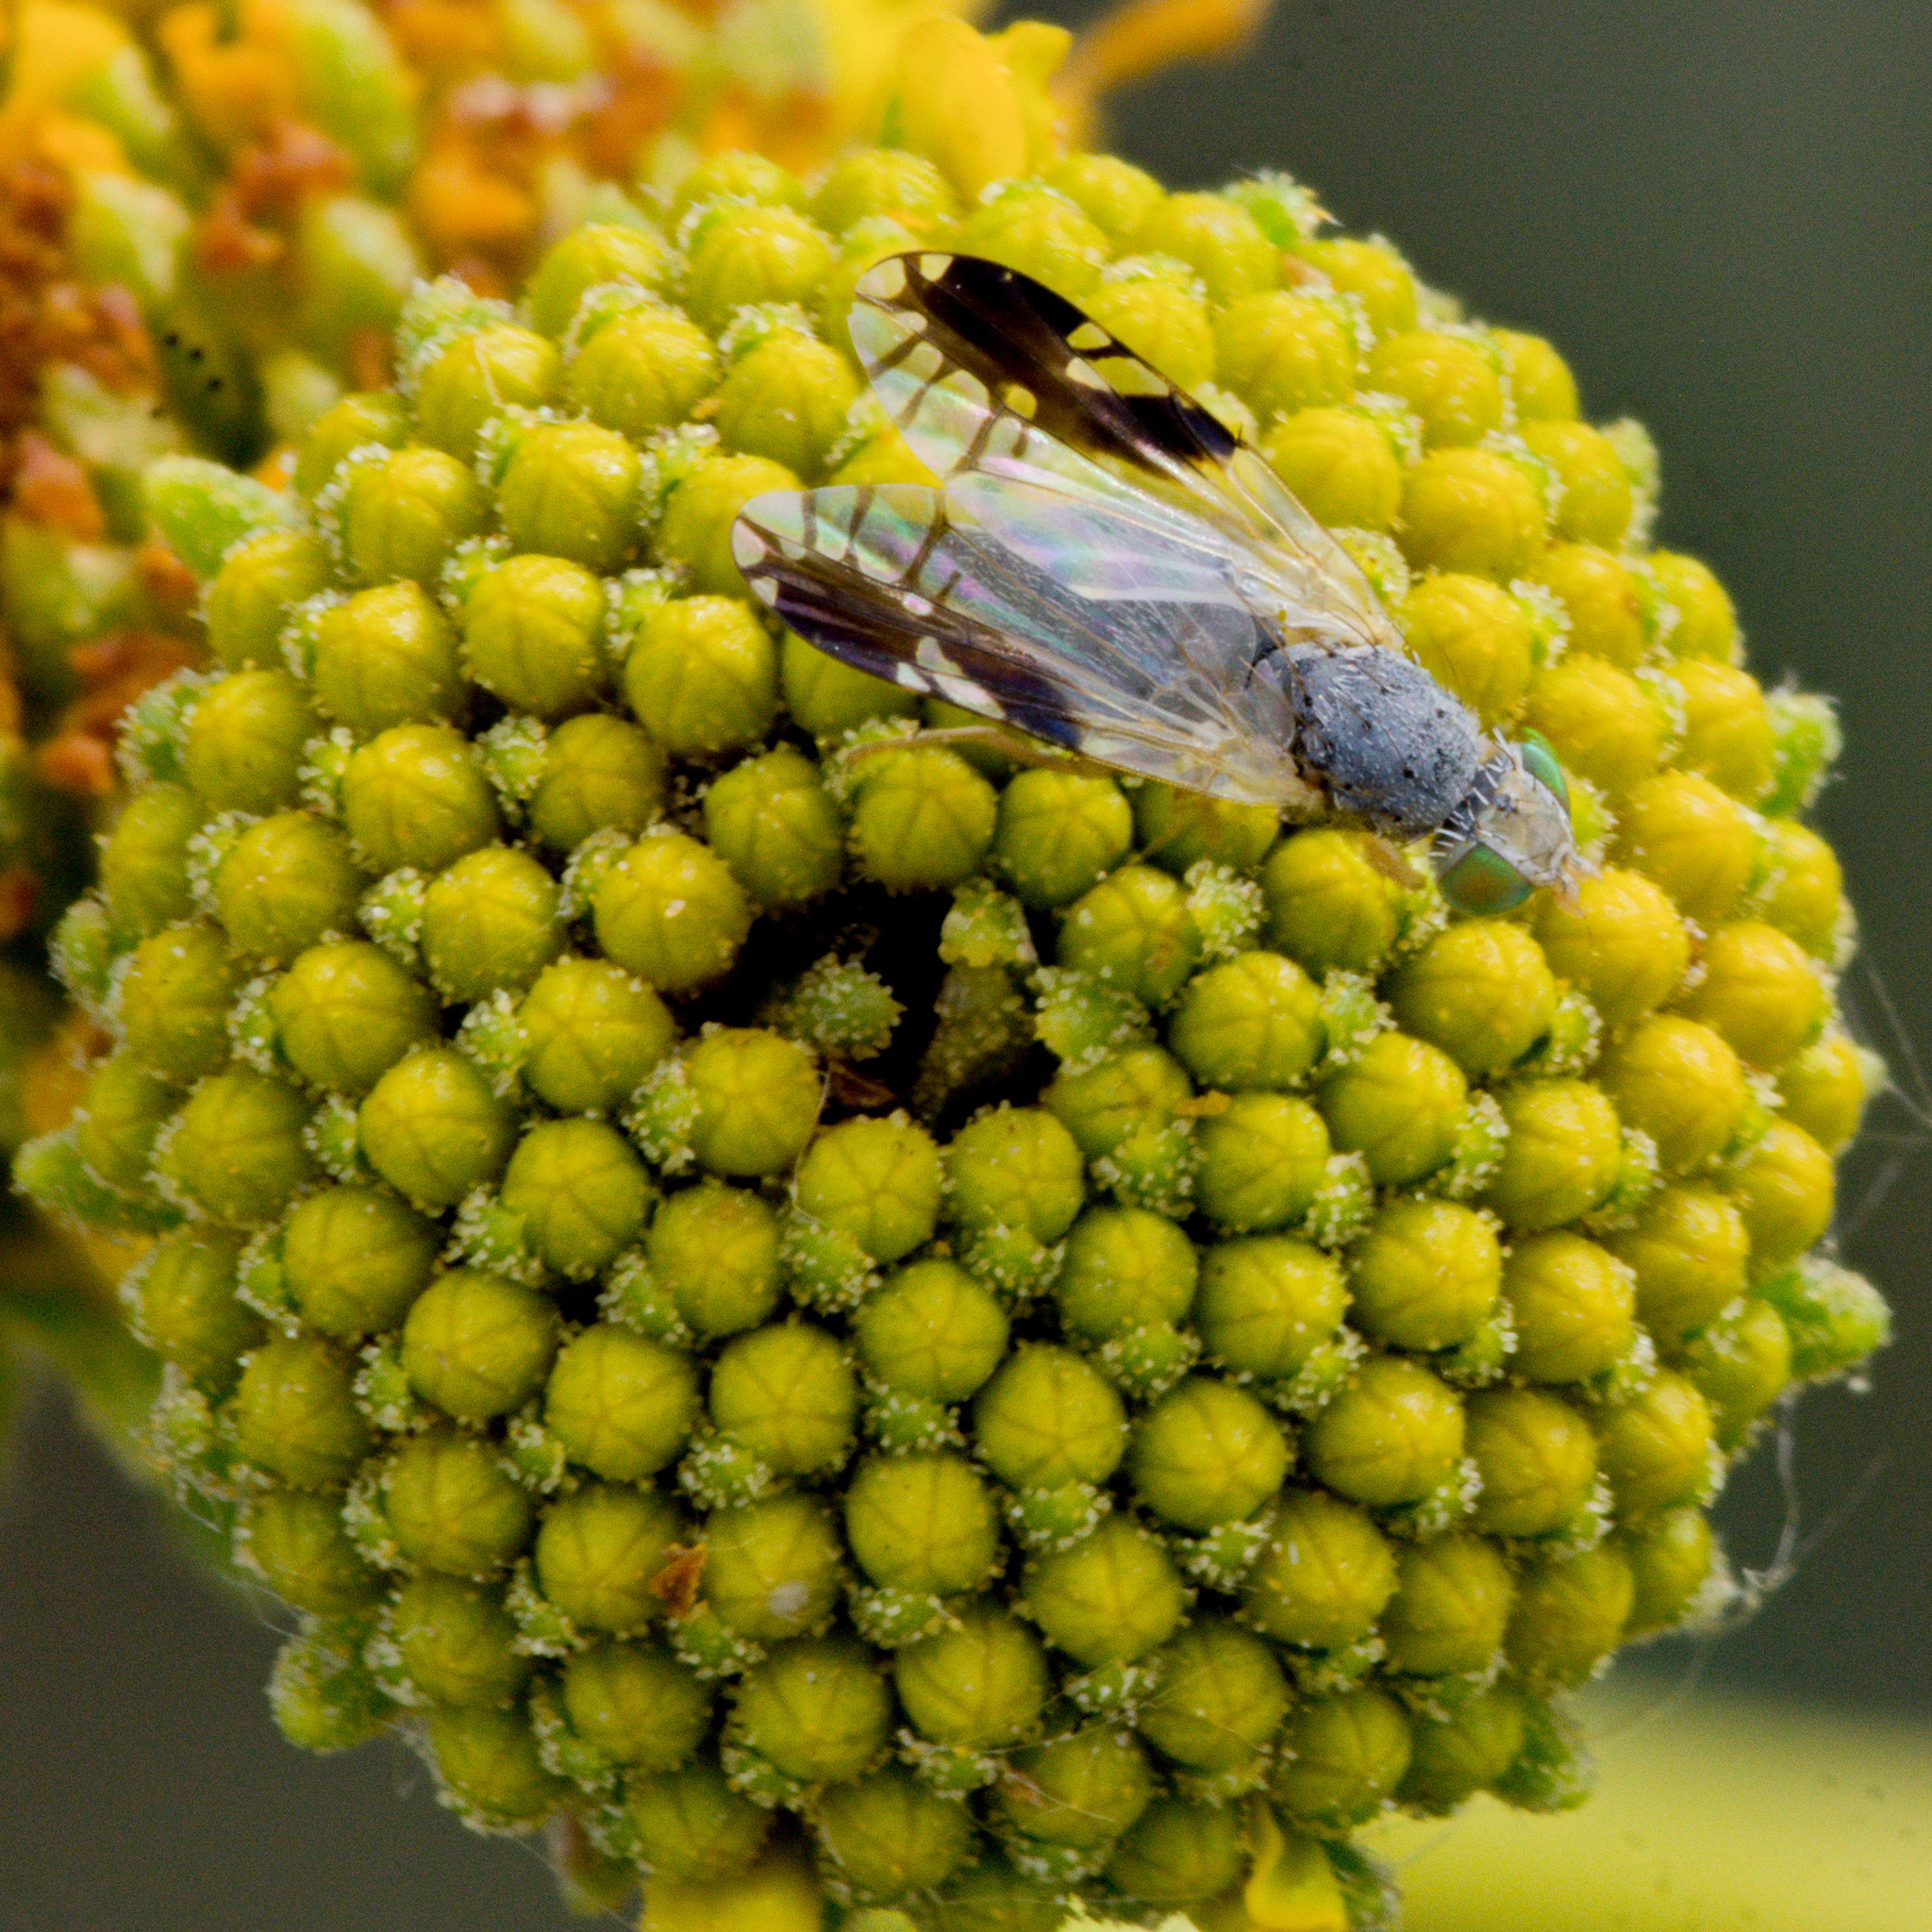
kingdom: Animalia
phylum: Arthropoda
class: Insecta
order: Diptera
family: Tephritidae
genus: Trupanea
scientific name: Trupanea bisetosa
